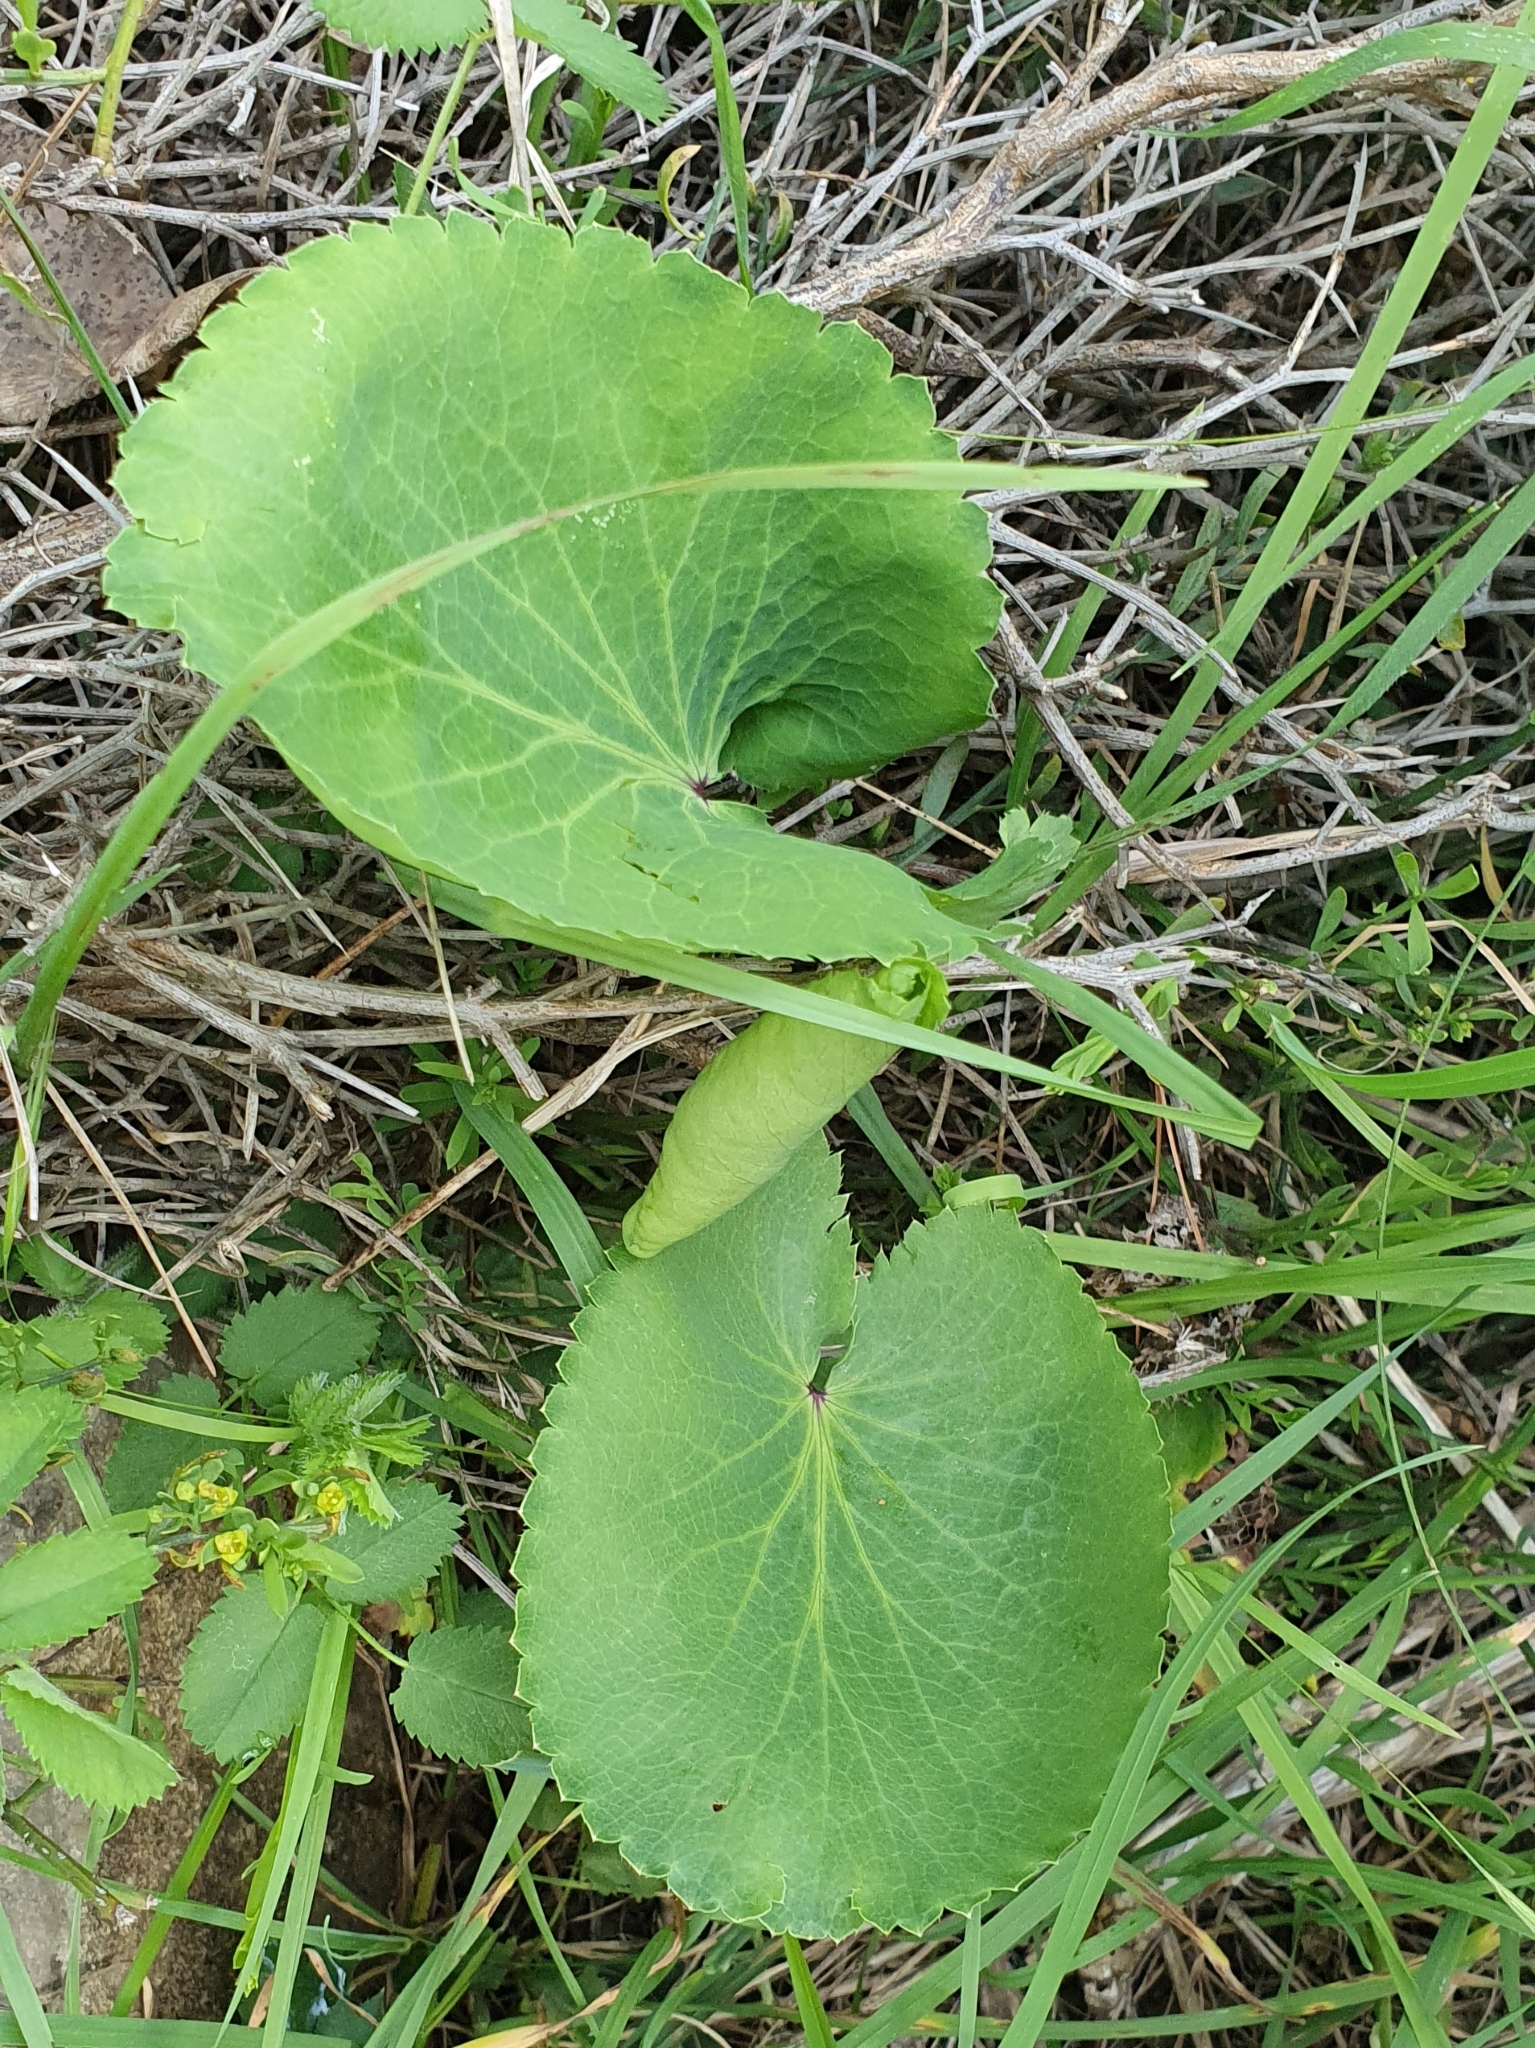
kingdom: Plantae
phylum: Tracheophyta
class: Magnoliopsida
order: Apiales
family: Apiaceae
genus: Eryngium
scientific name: Eryngium tricuspidatum
